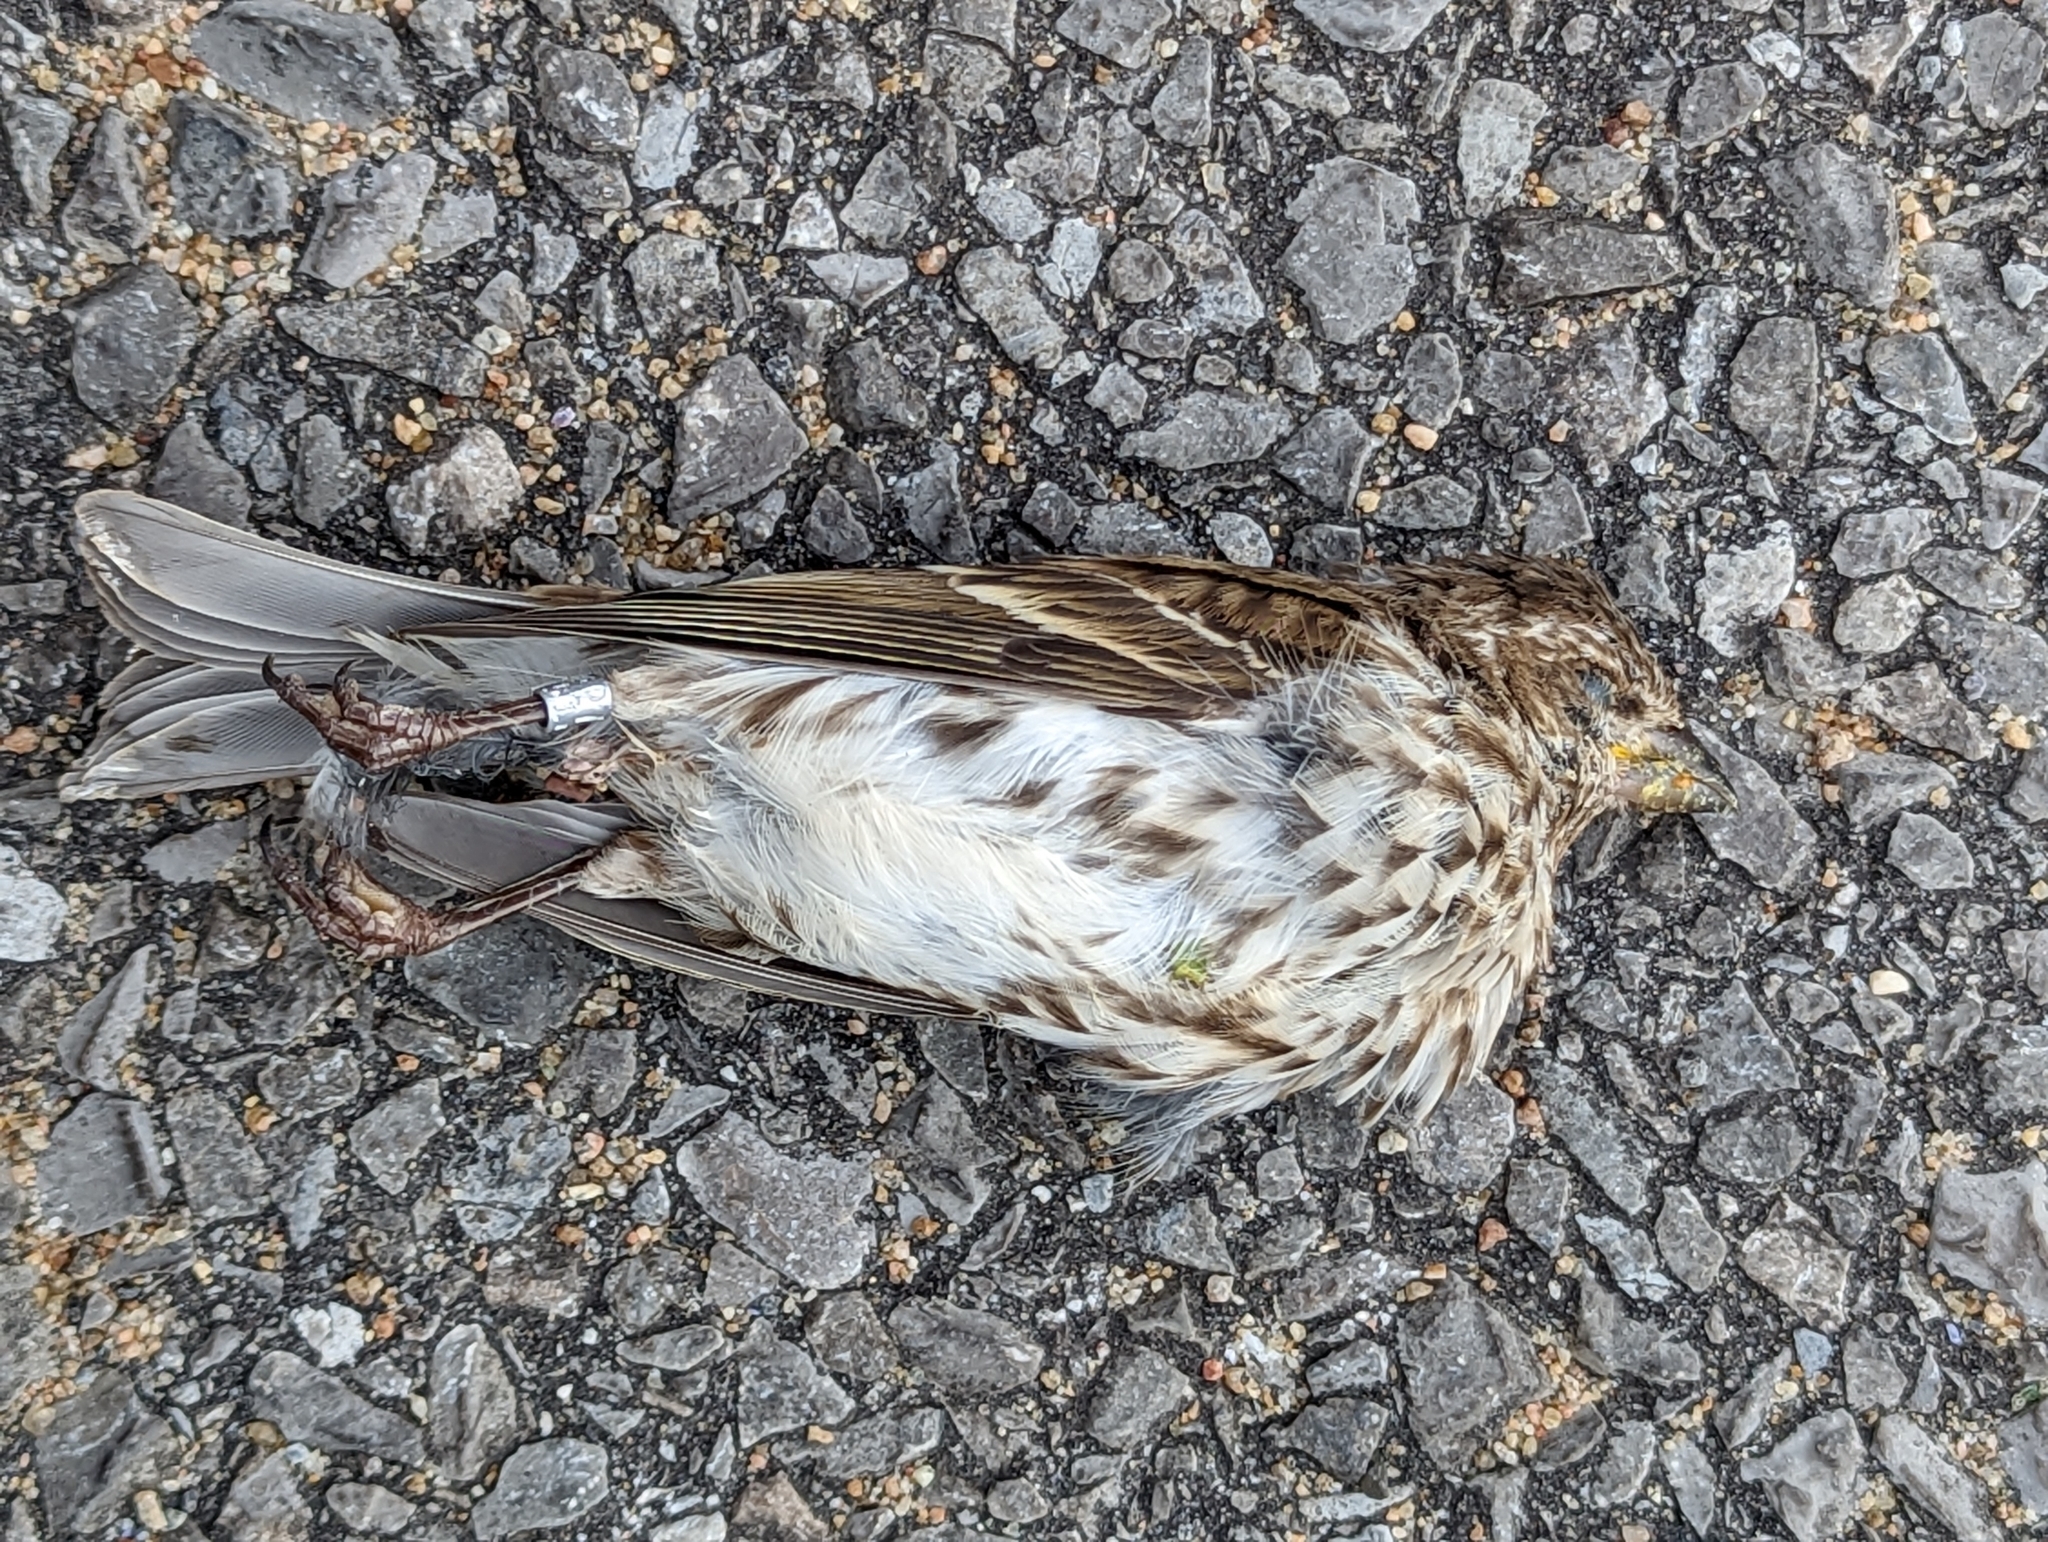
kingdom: Animalia
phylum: Chordata
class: Aves
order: Passeriformes
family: Fringillidae
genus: Haemorhous
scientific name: Haemorhous purpureus
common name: Purple finch
